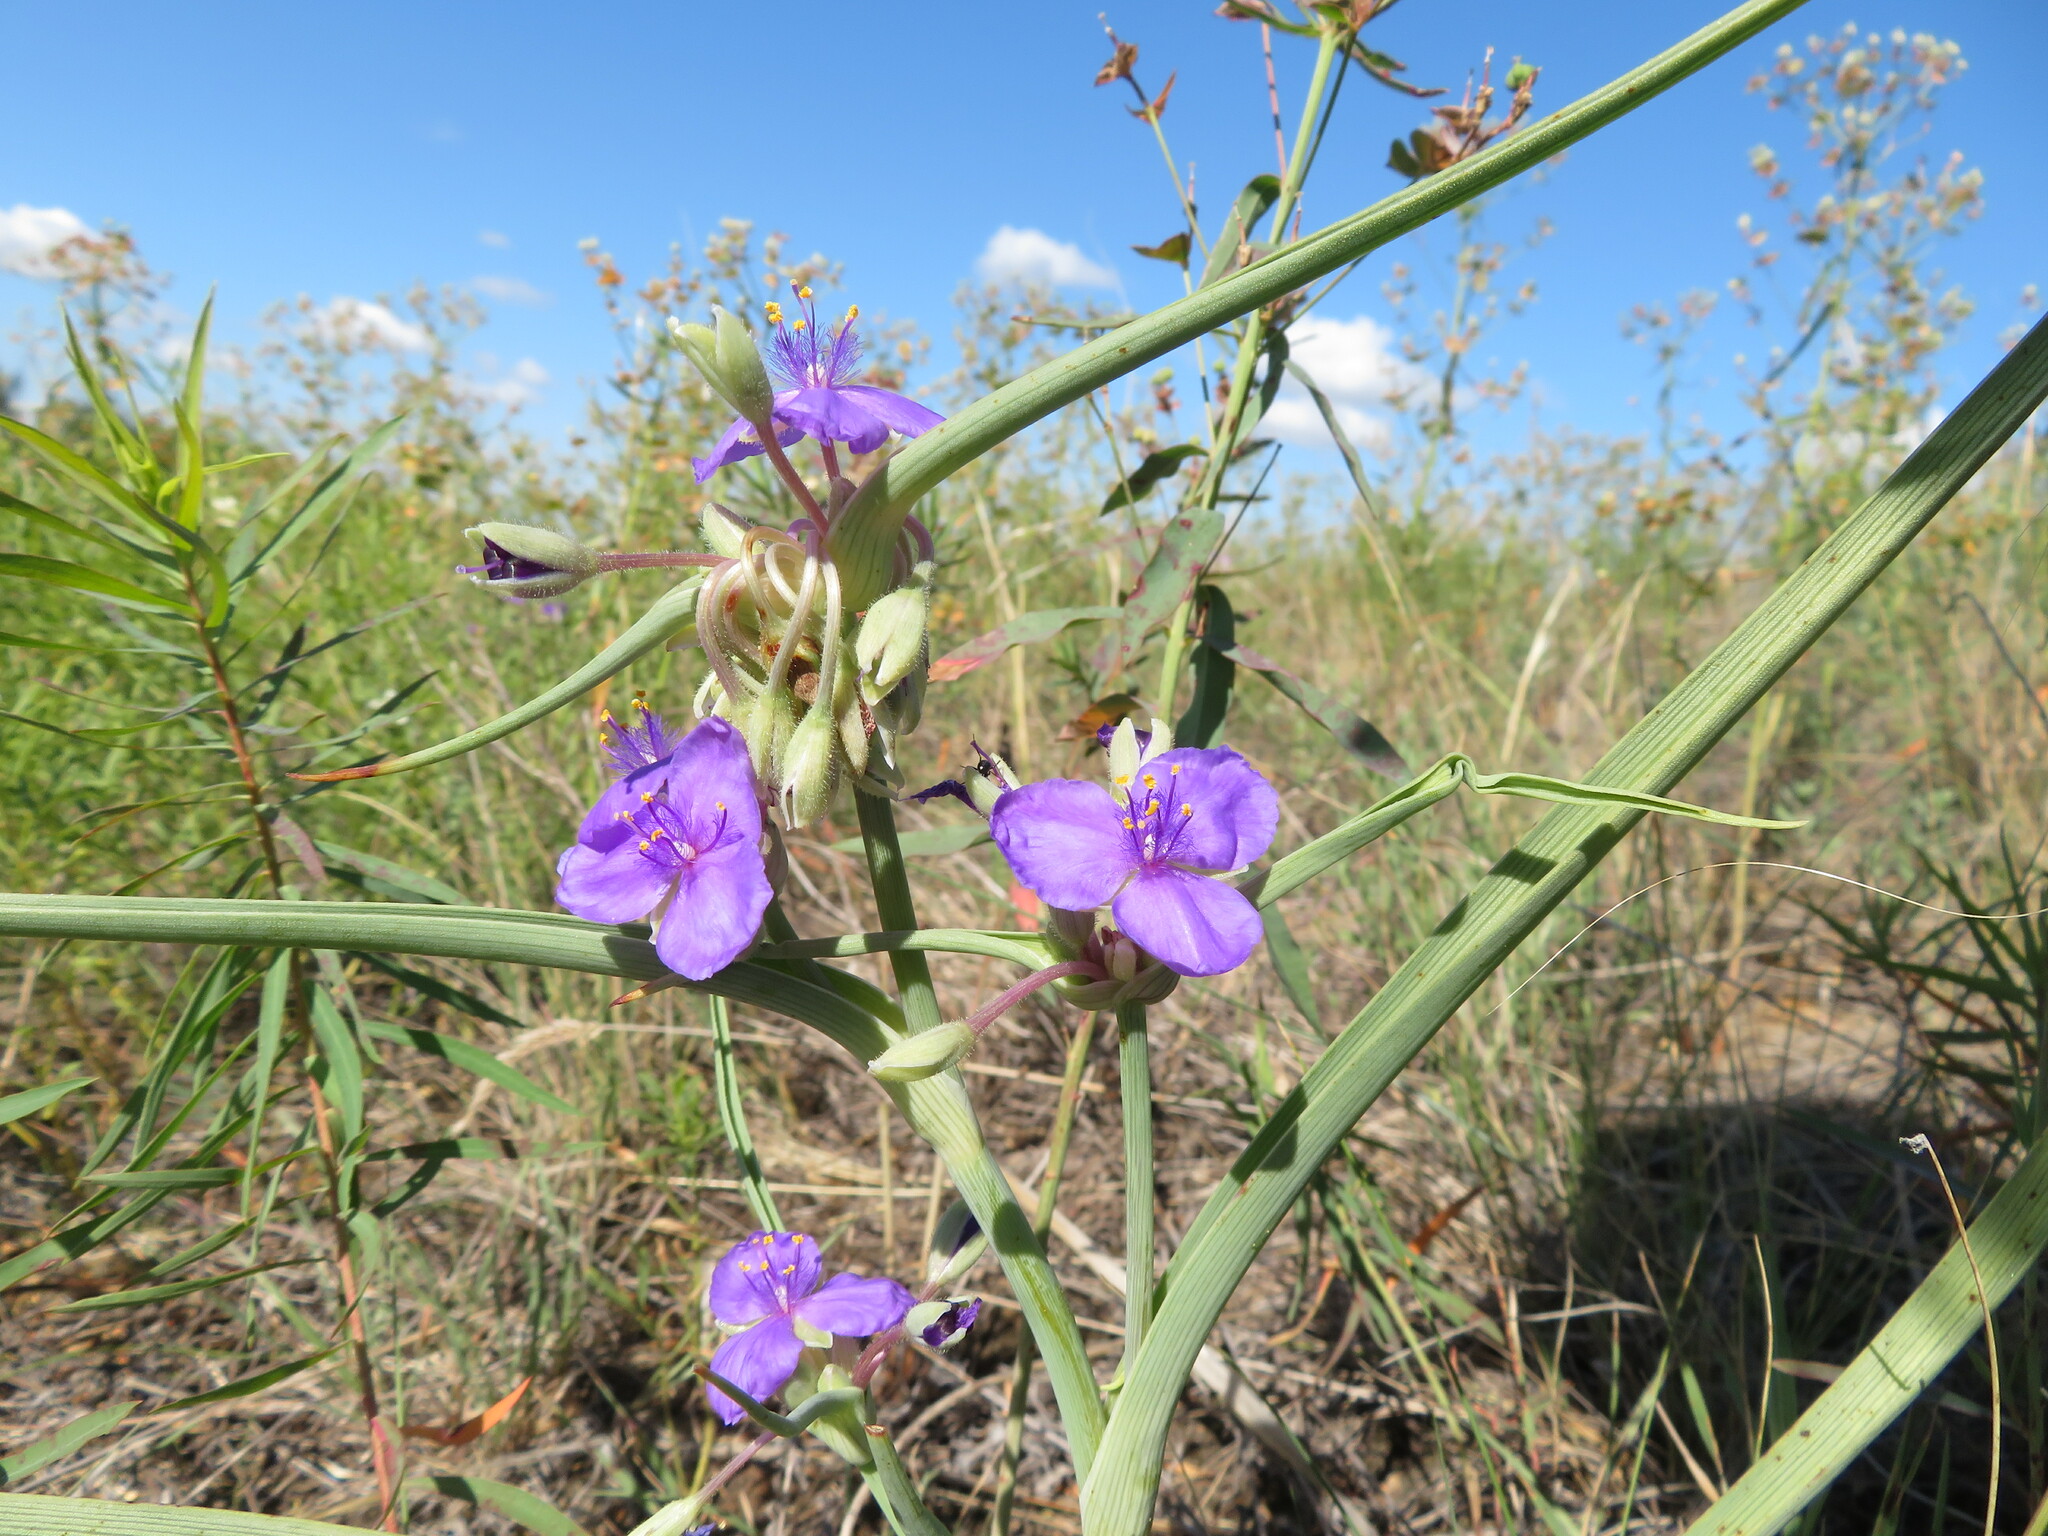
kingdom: Plantae
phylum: Tracheophyta
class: Liliopsida
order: Commelinales
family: Commelinaceae
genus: Tradescantia
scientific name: Tradescantia occidentalis
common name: Prairie spiderwort
